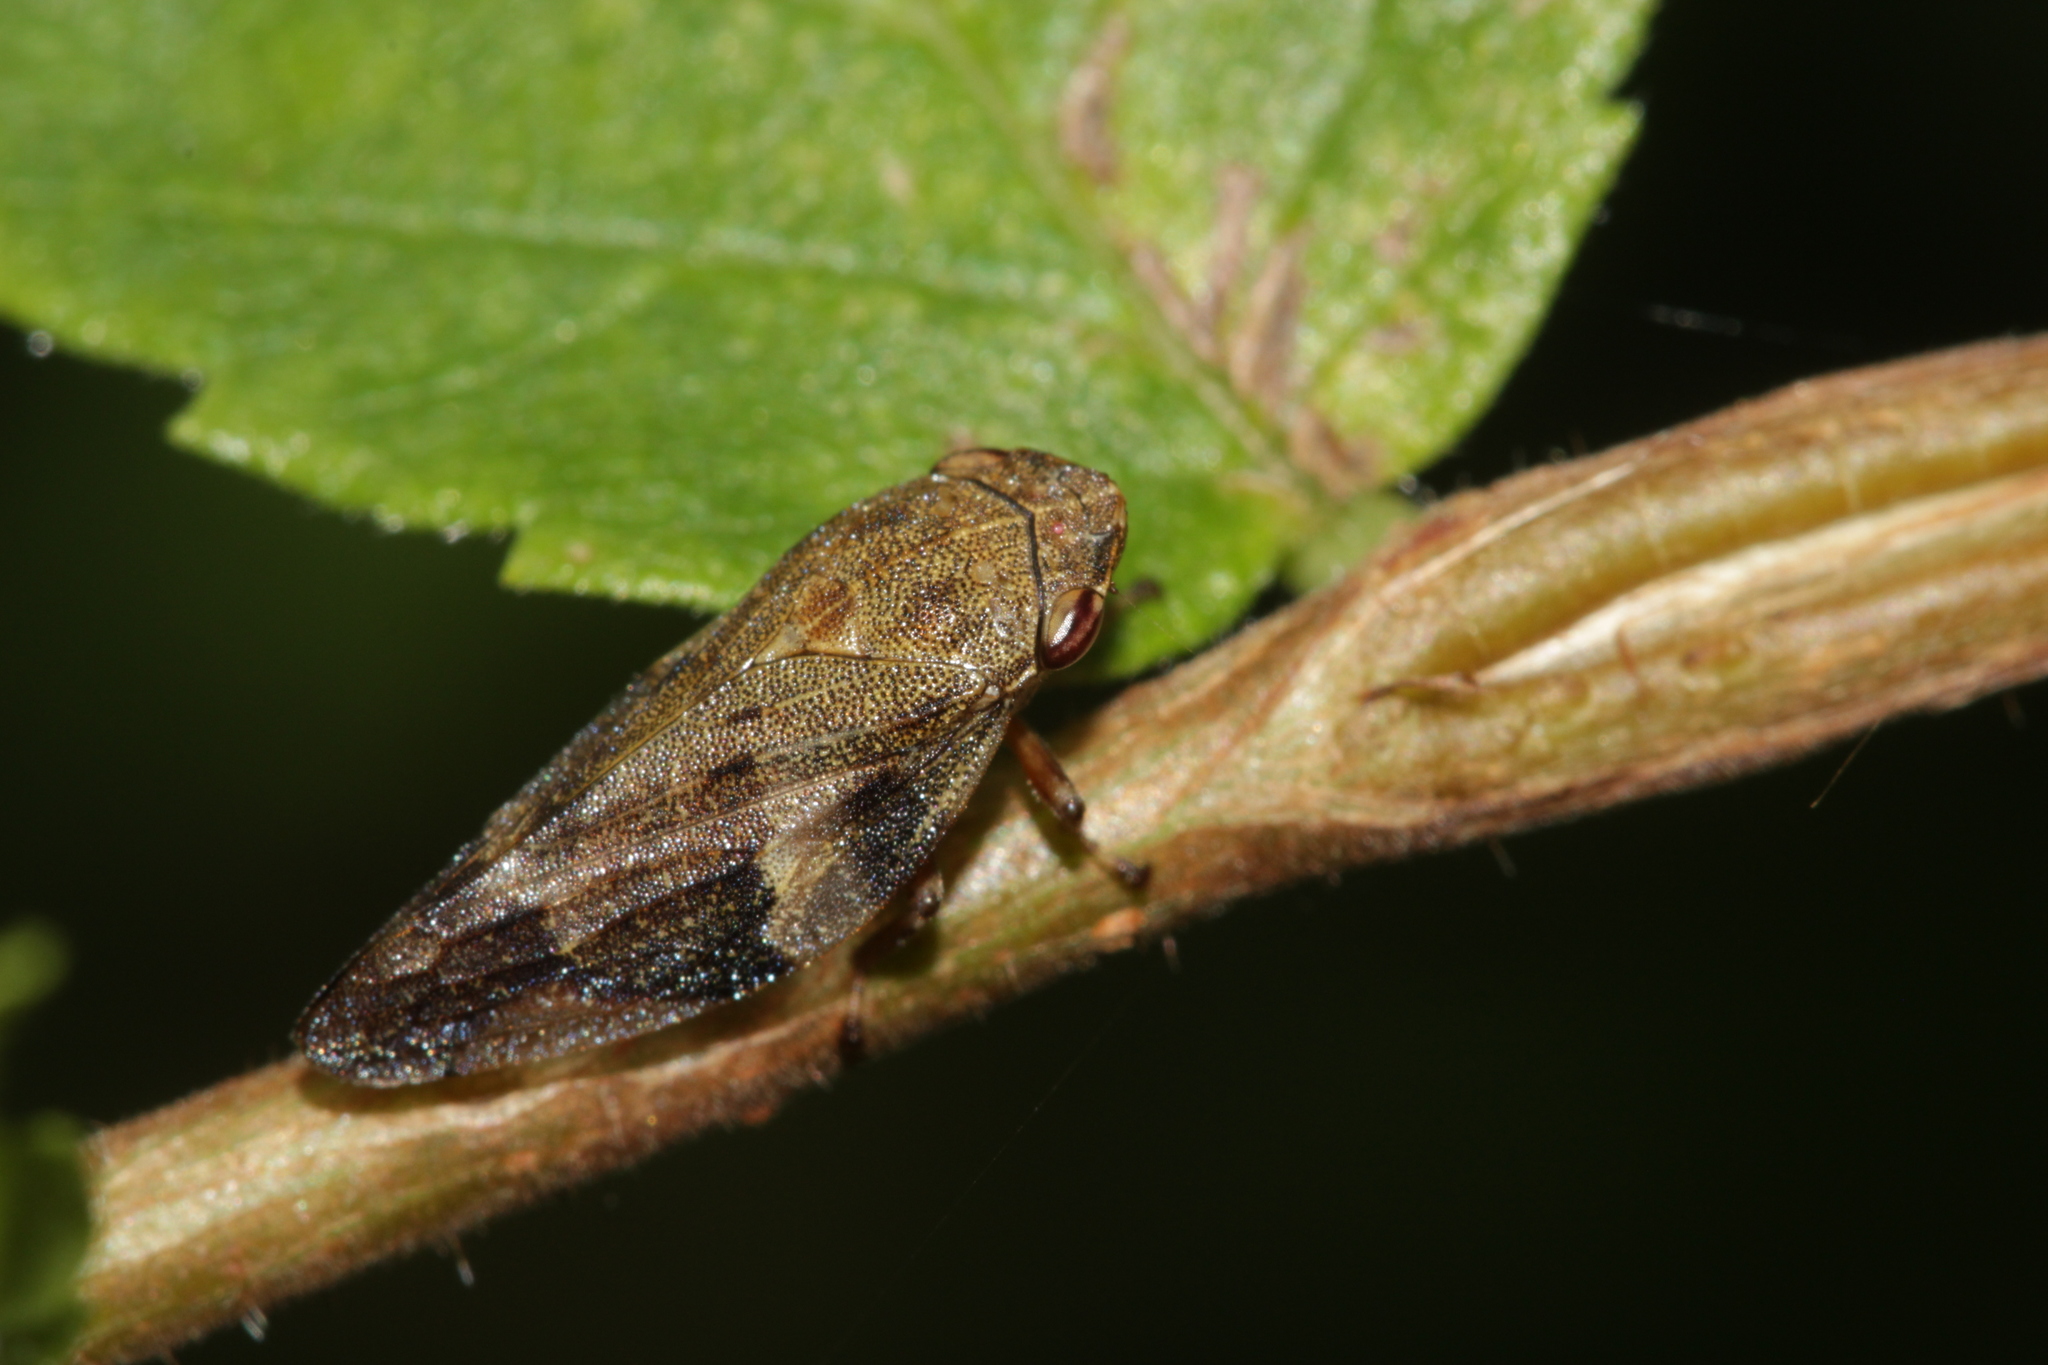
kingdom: Animalia
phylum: Arthropoda
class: Insecta
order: Hemiptera
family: Aphrophoridae
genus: Aphrophora
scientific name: Aphrophora alni
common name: European alder spittlebug
